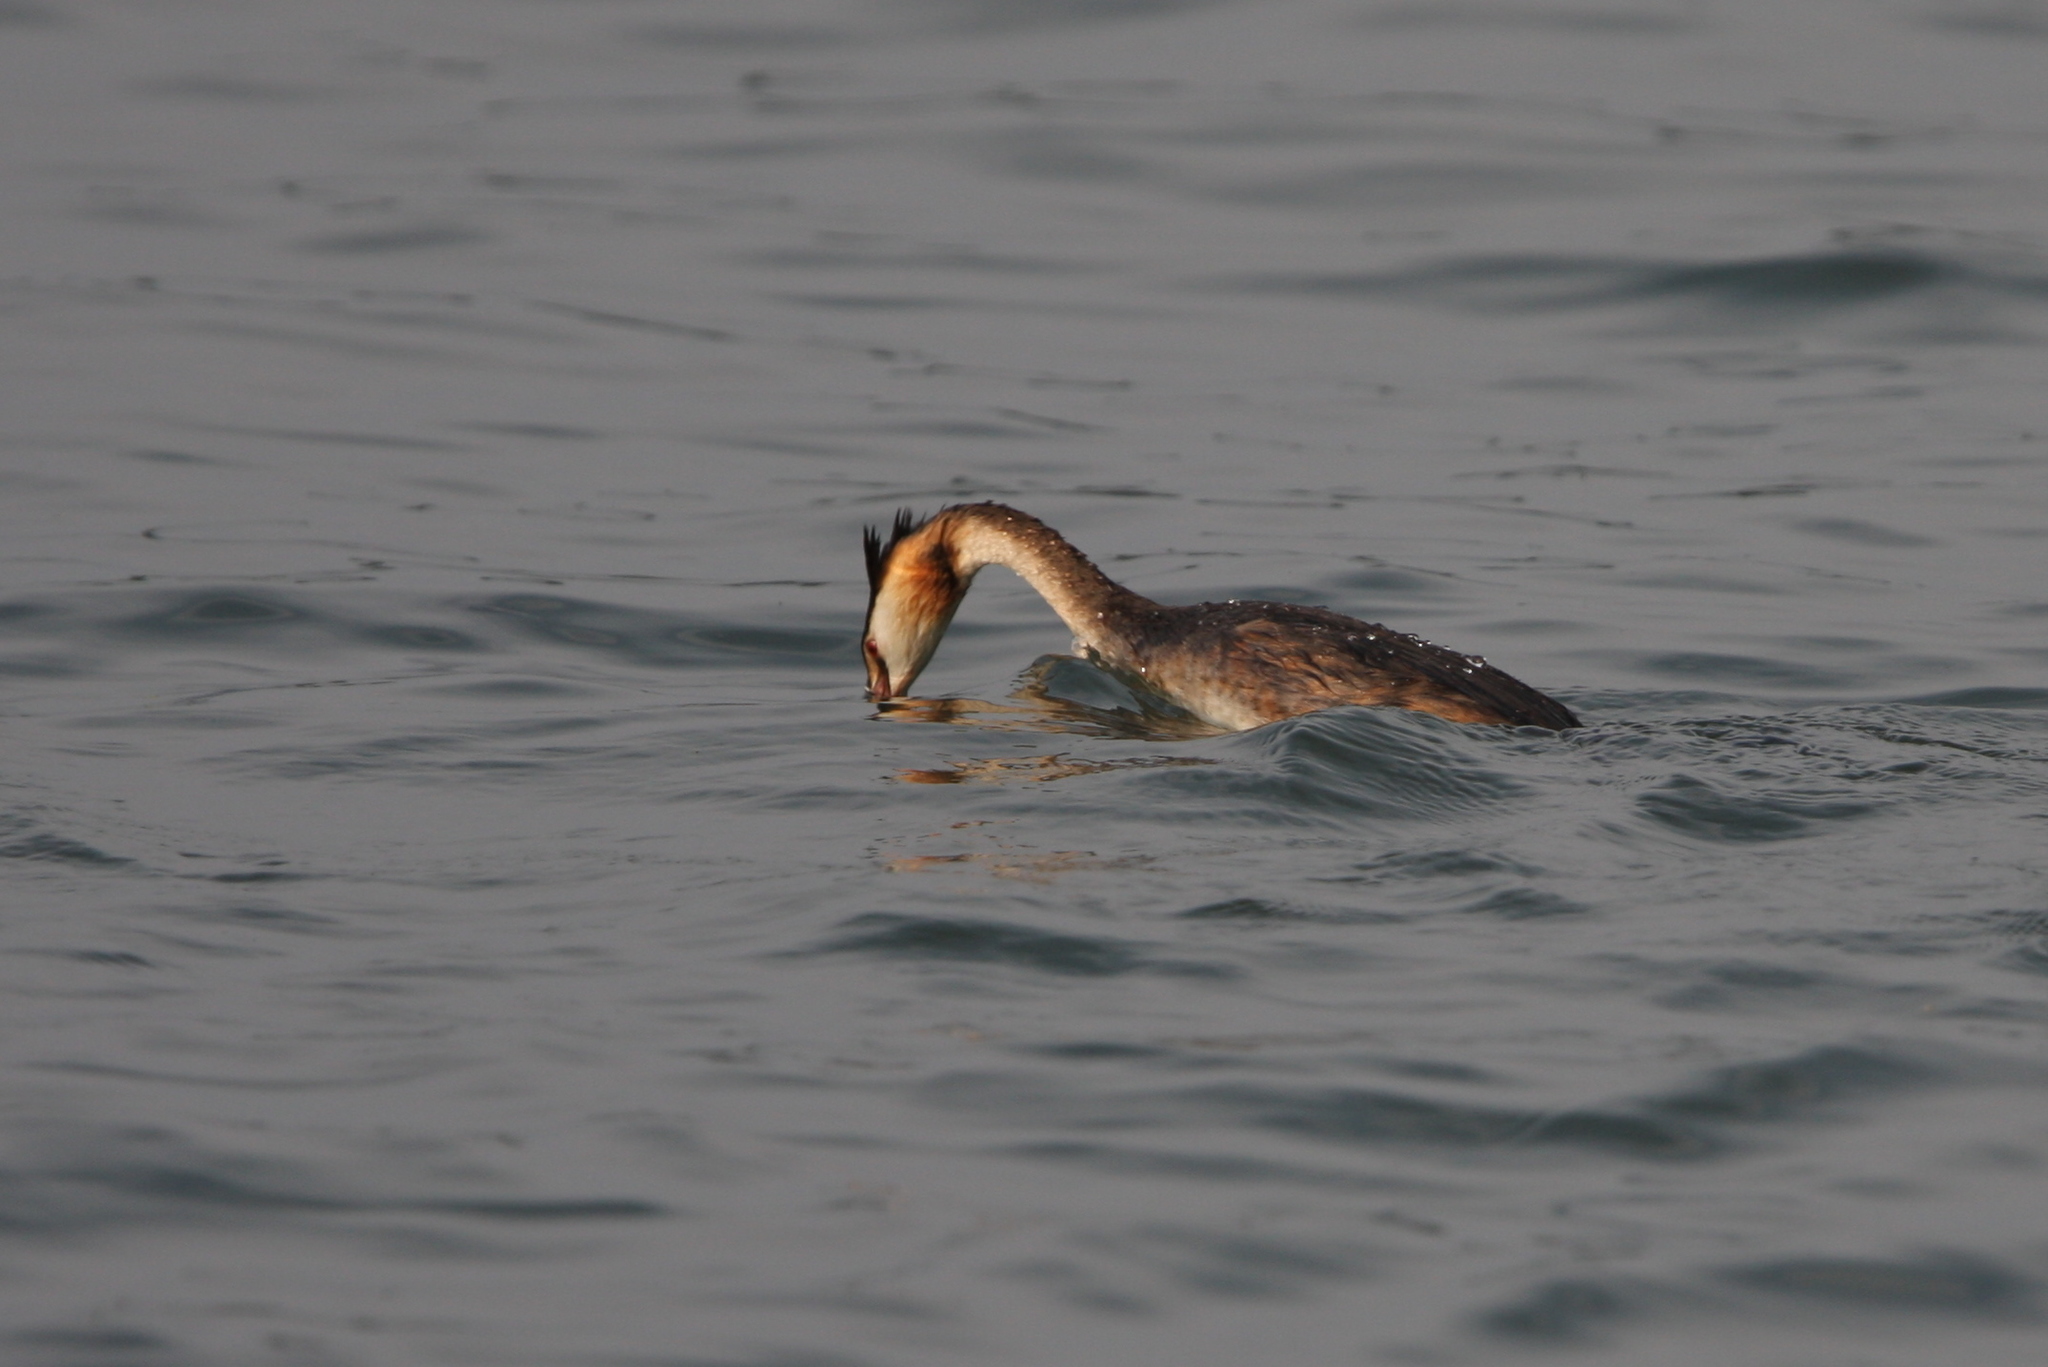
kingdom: Animalia
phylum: Chordata
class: Aves
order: Podicipediformes
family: Podicipedidae
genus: Podiceps
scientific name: Podiceps cristatus
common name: Great crested grebe
